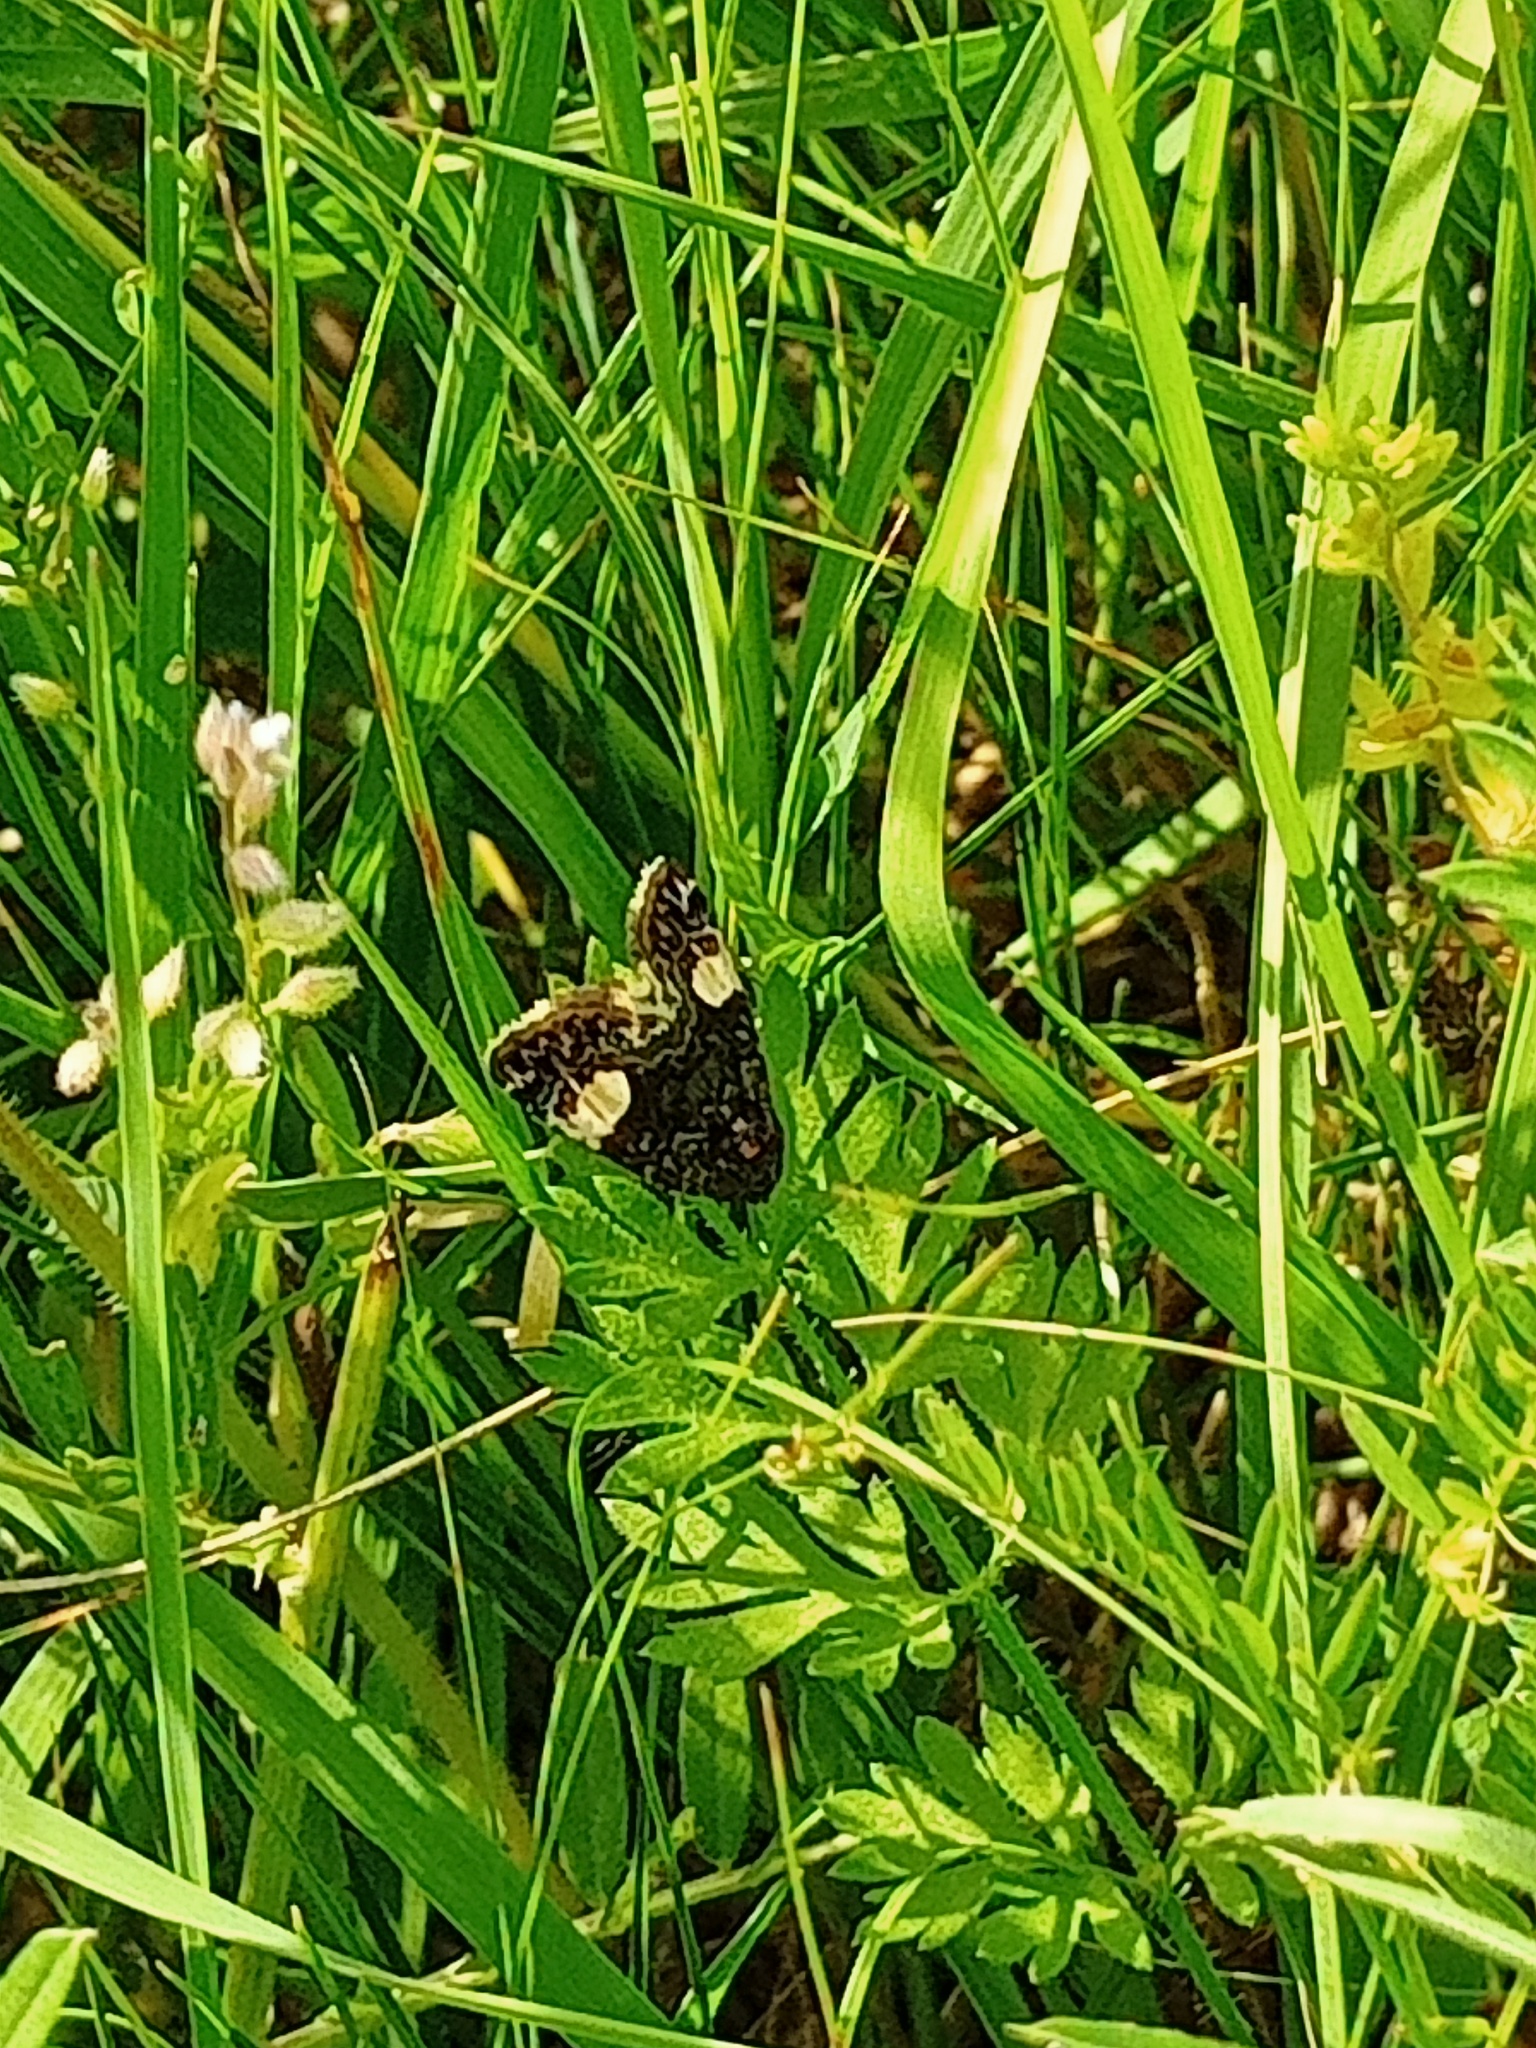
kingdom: Animalia
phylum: Arthropoda
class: Insecta
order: Lepidoptera
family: Erebidae
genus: Tyta
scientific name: Tyta luctuosa
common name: Four-spotted
